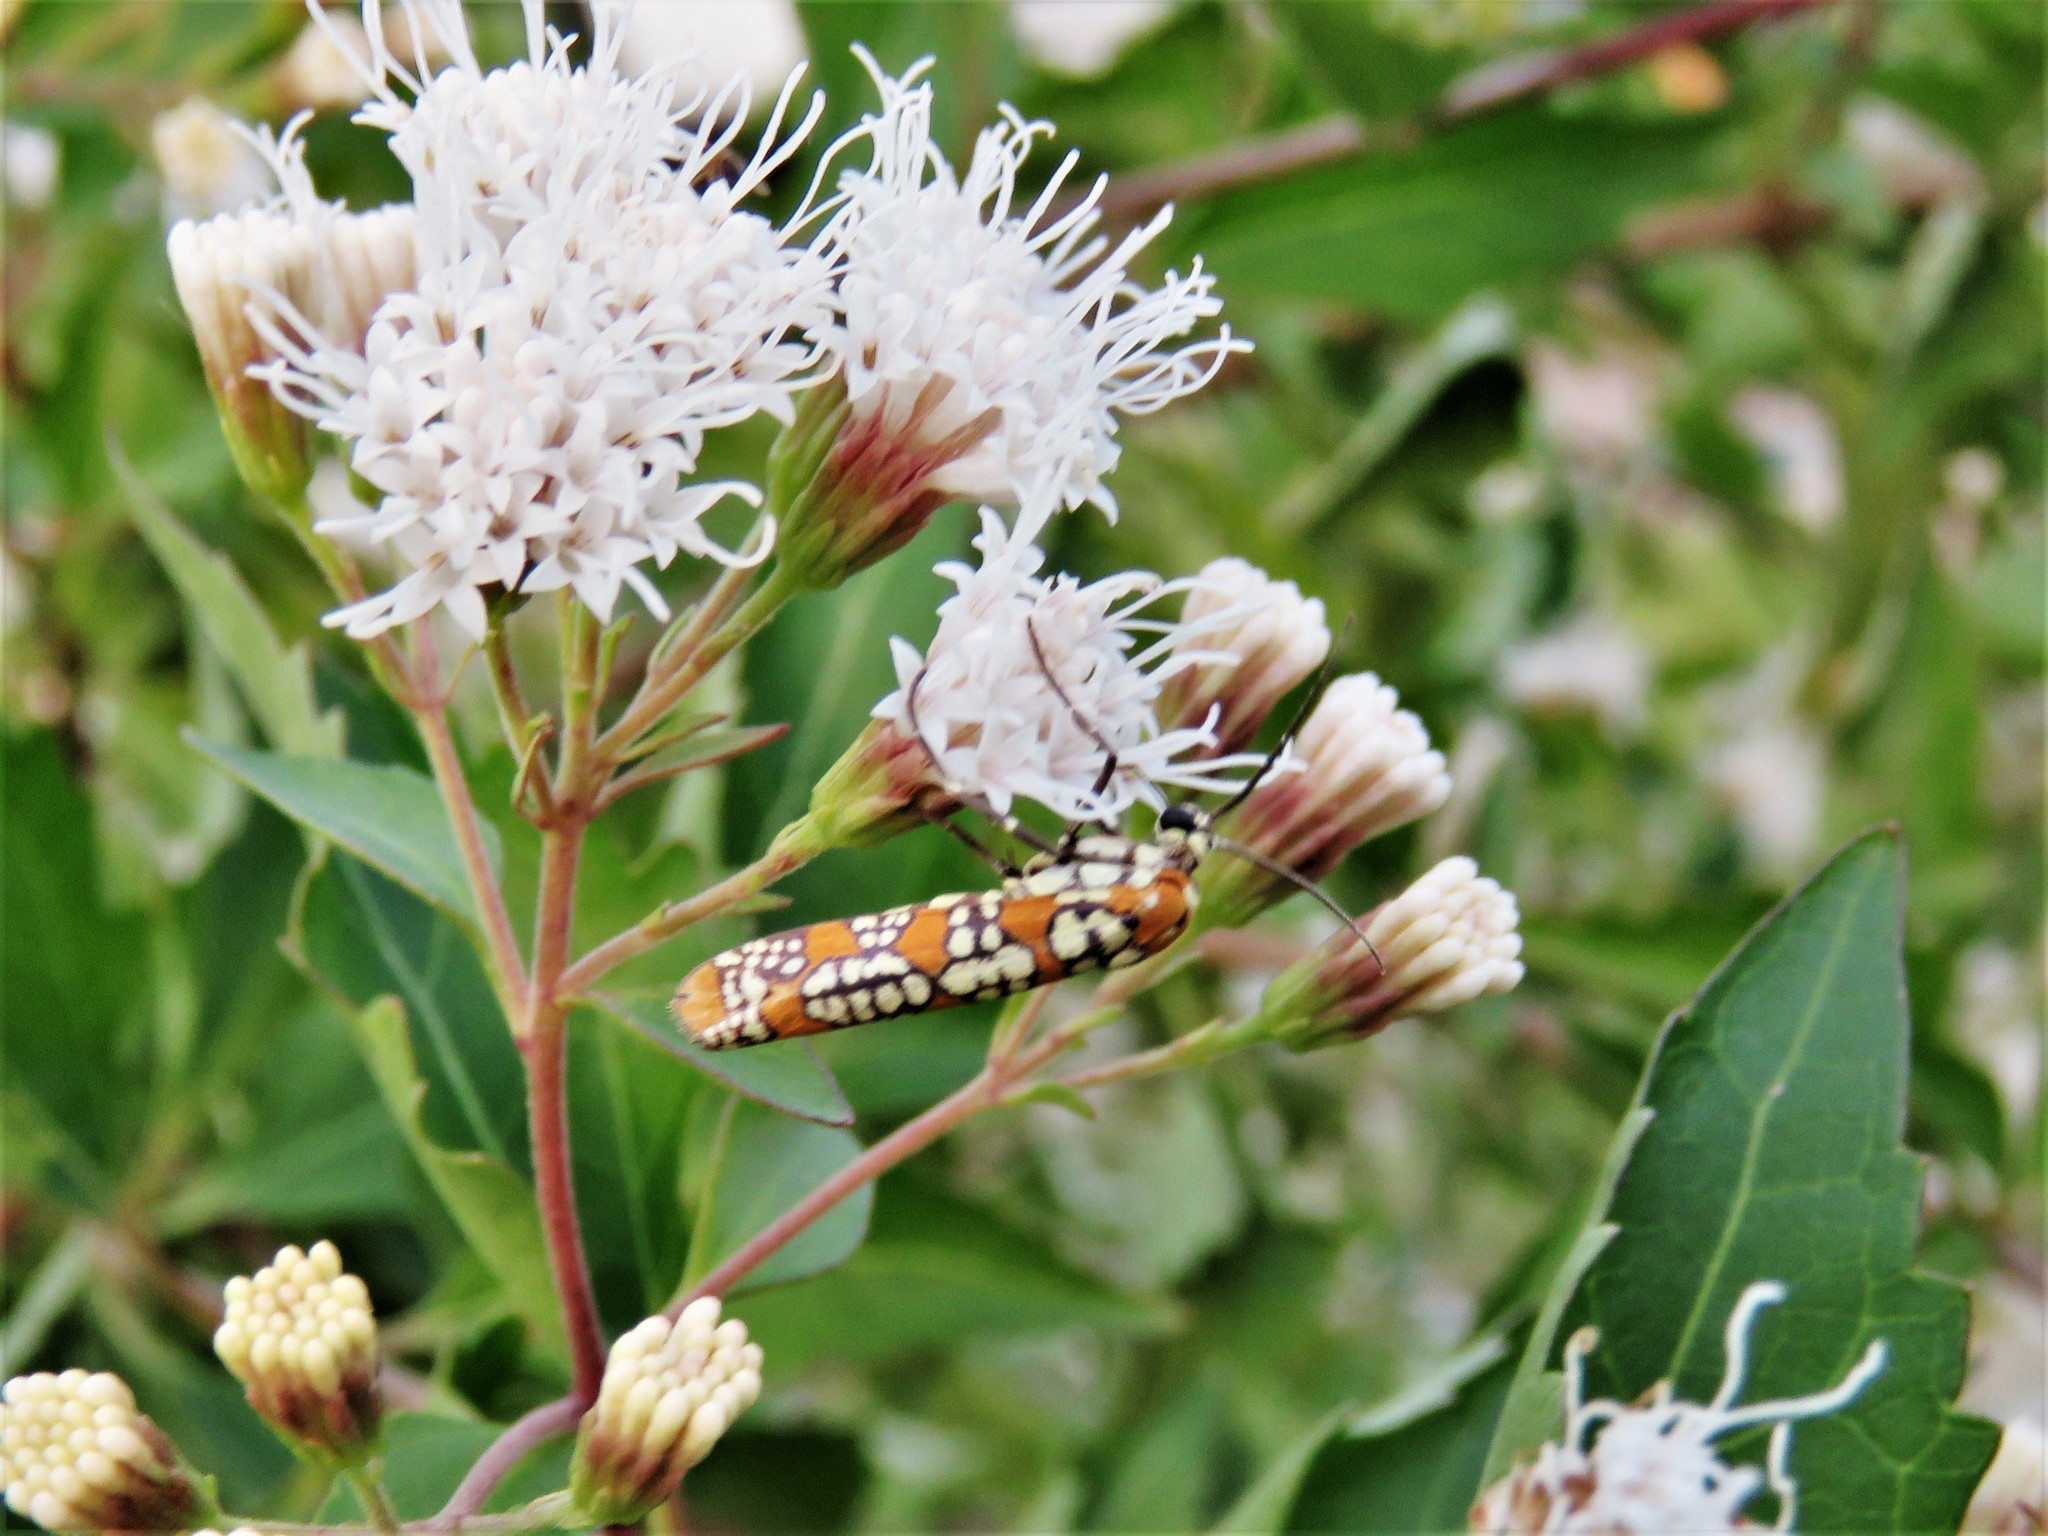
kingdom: Animalia
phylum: Arthropoda
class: Insecta
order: Lepidoptera
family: Attevidae
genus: Atteva
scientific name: Atteva punctella
